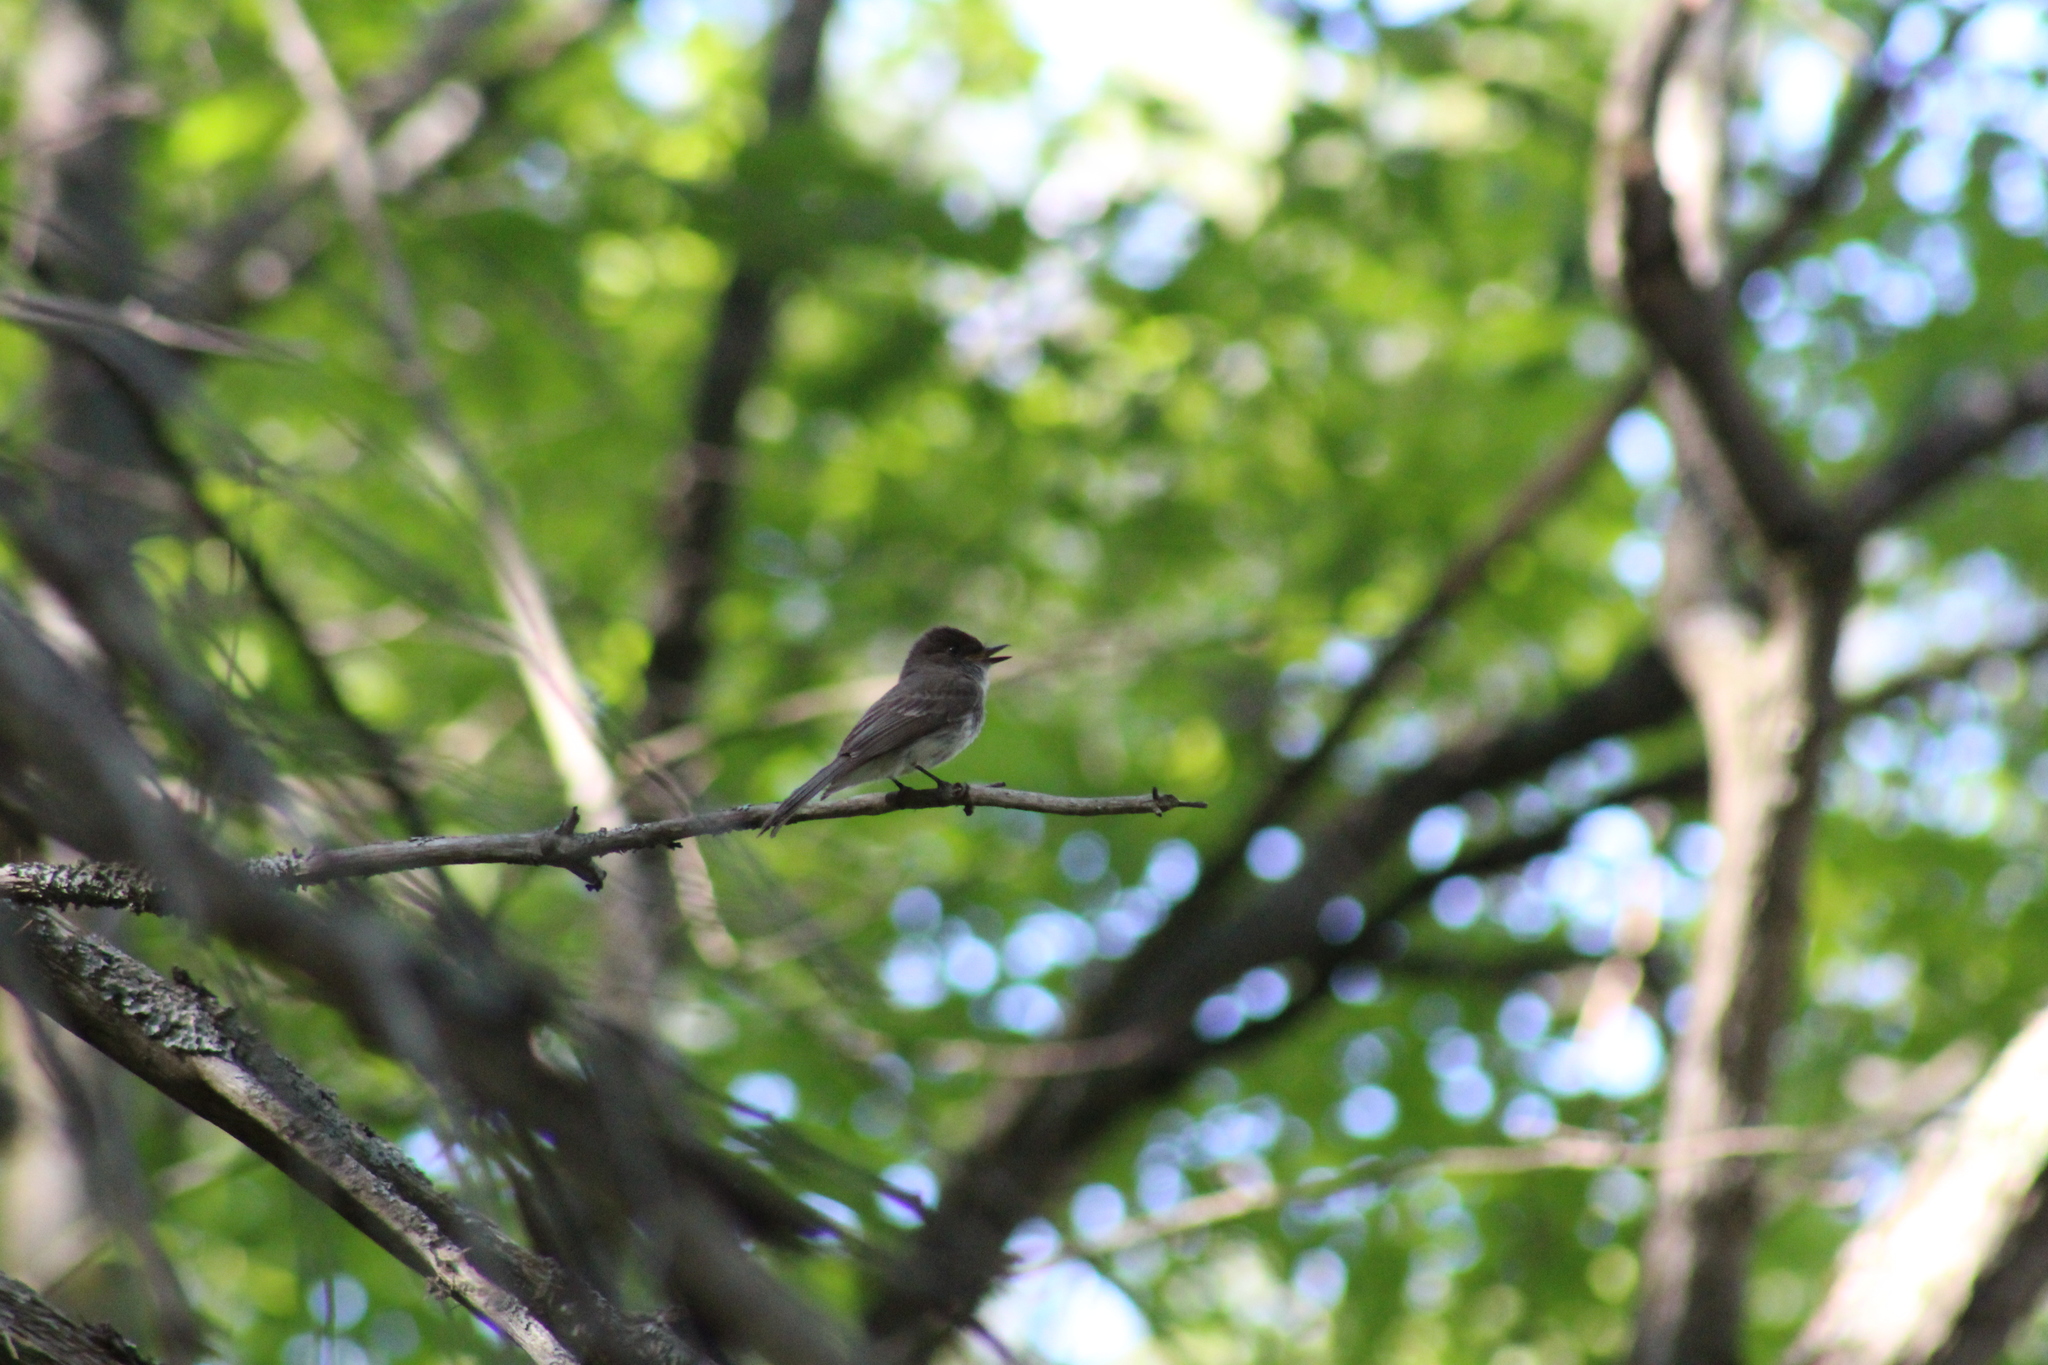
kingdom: Animalia
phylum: Chordata
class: Aves
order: Passeriformes
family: Tyrannidae
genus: Sayornis
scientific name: Sayornis phoebe
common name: Eastern phoebe
